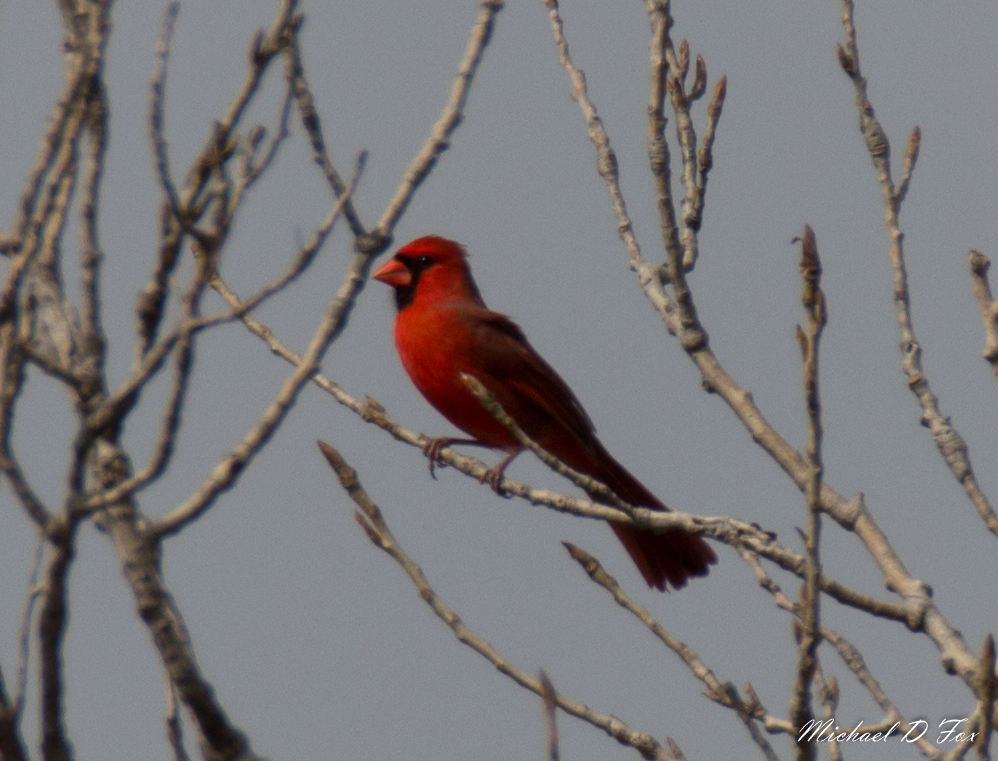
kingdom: Animalia
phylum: Chordata
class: Aves
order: Passeriformes
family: Cardinalidae
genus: Cardinalis
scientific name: Cardinalis cardinalis
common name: Northern cardinal
